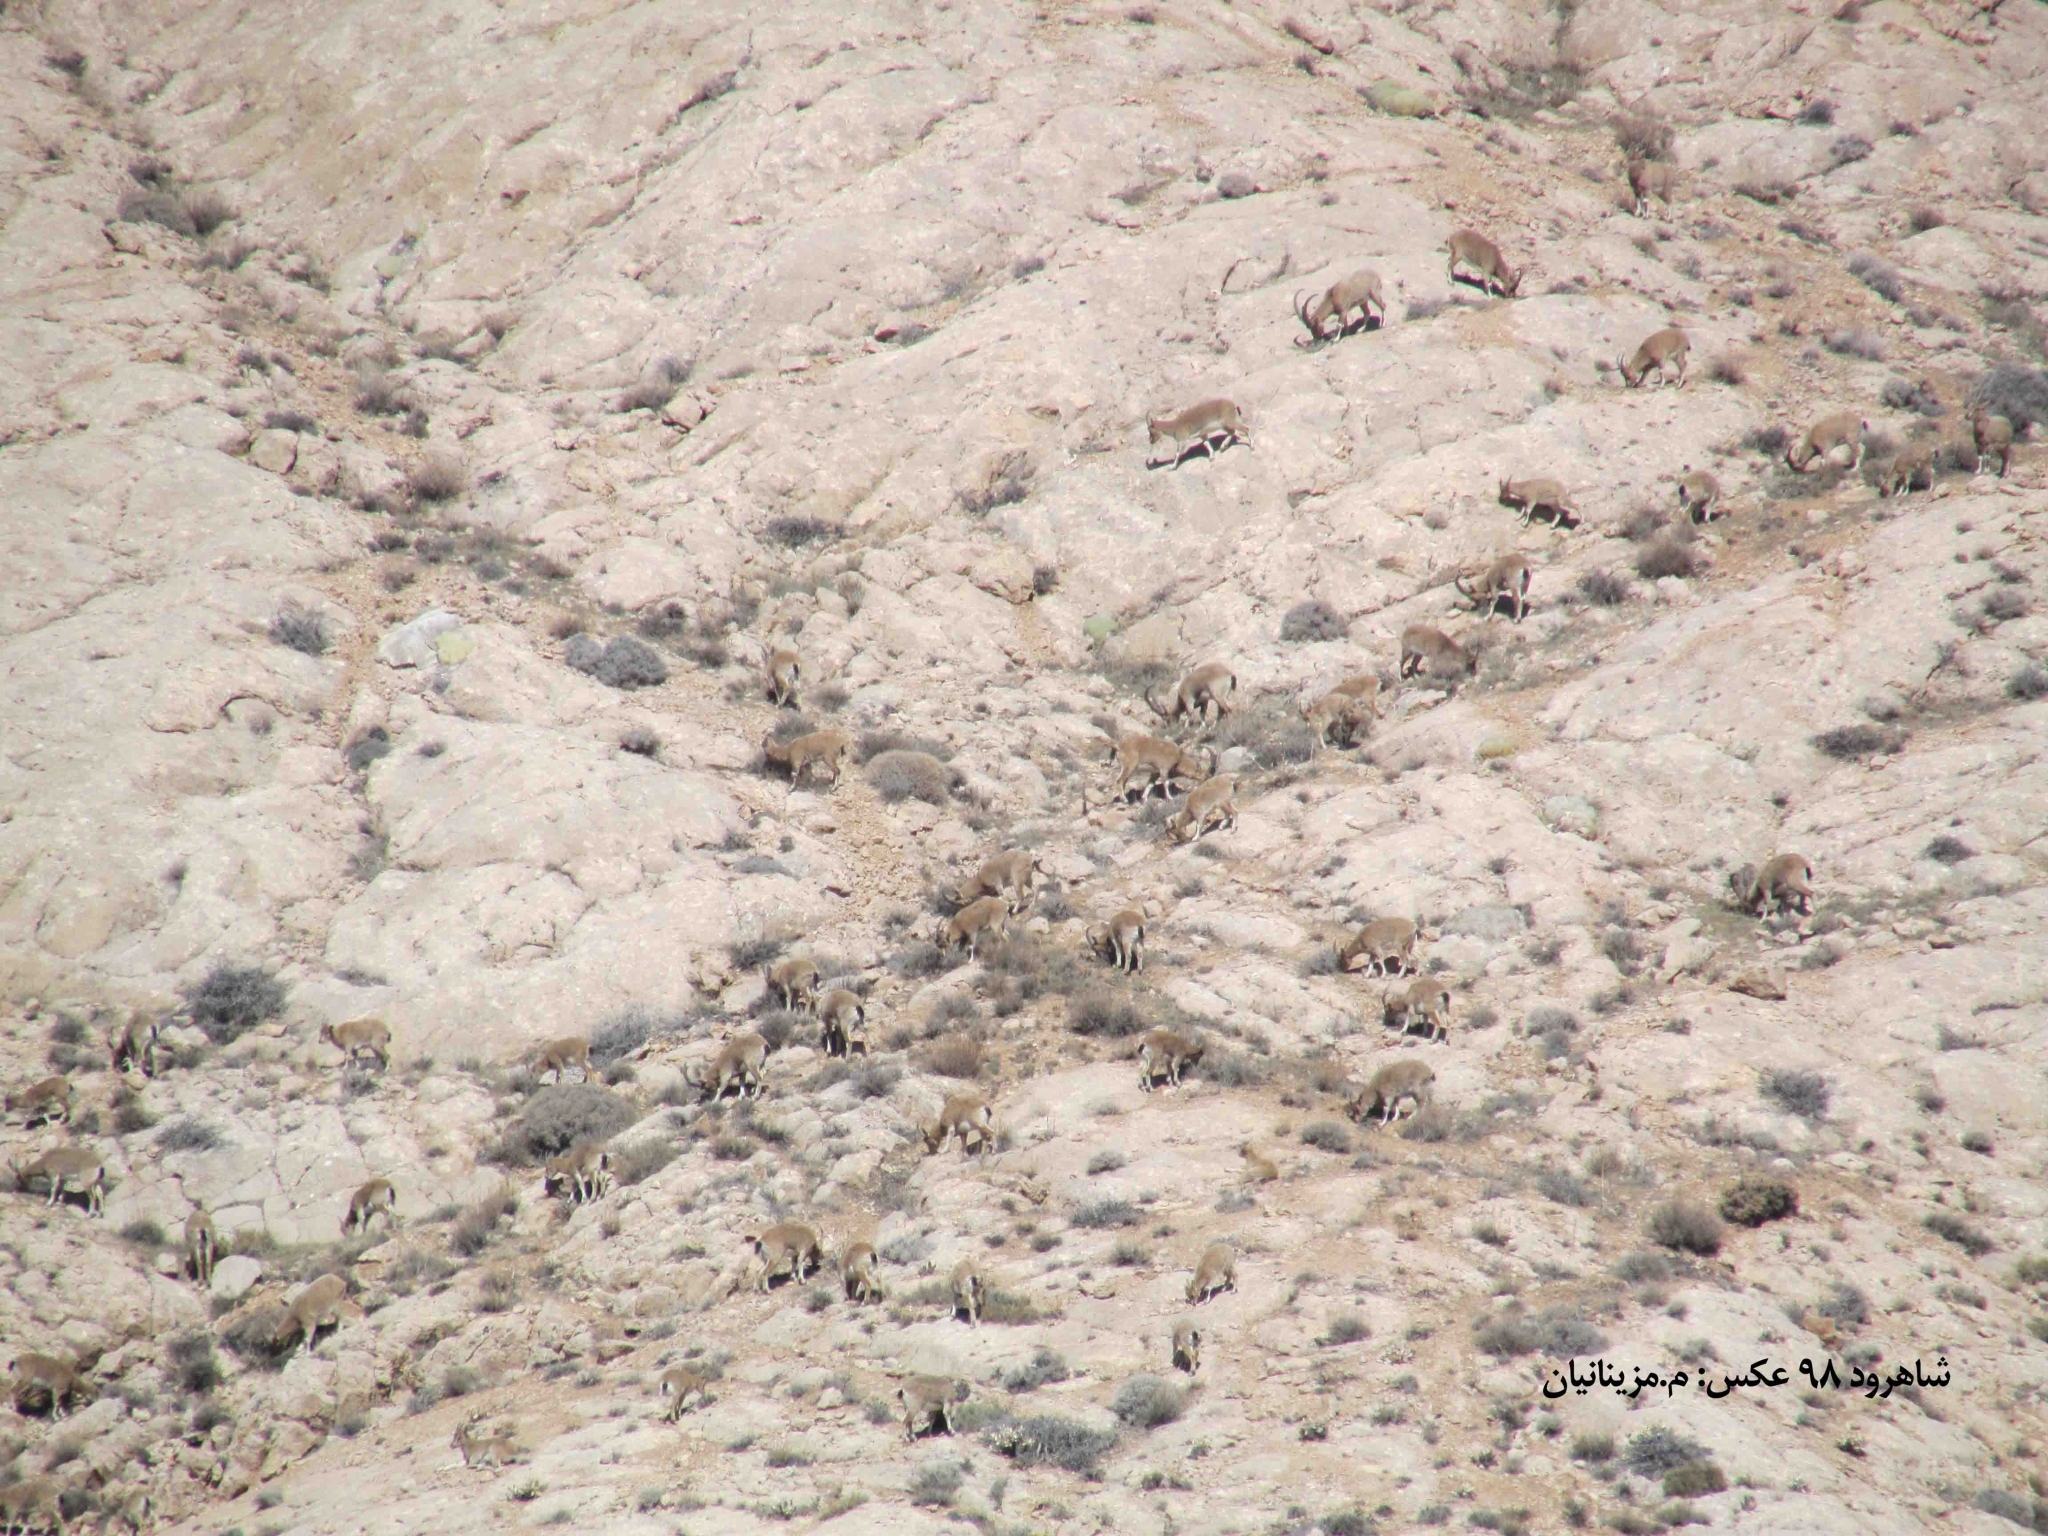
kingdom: Animalia
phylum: Chordata
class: Mammalia
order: Artiodactyla
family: Bovidae
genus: Capra
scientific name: Capra hircus
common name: Domestic goat
